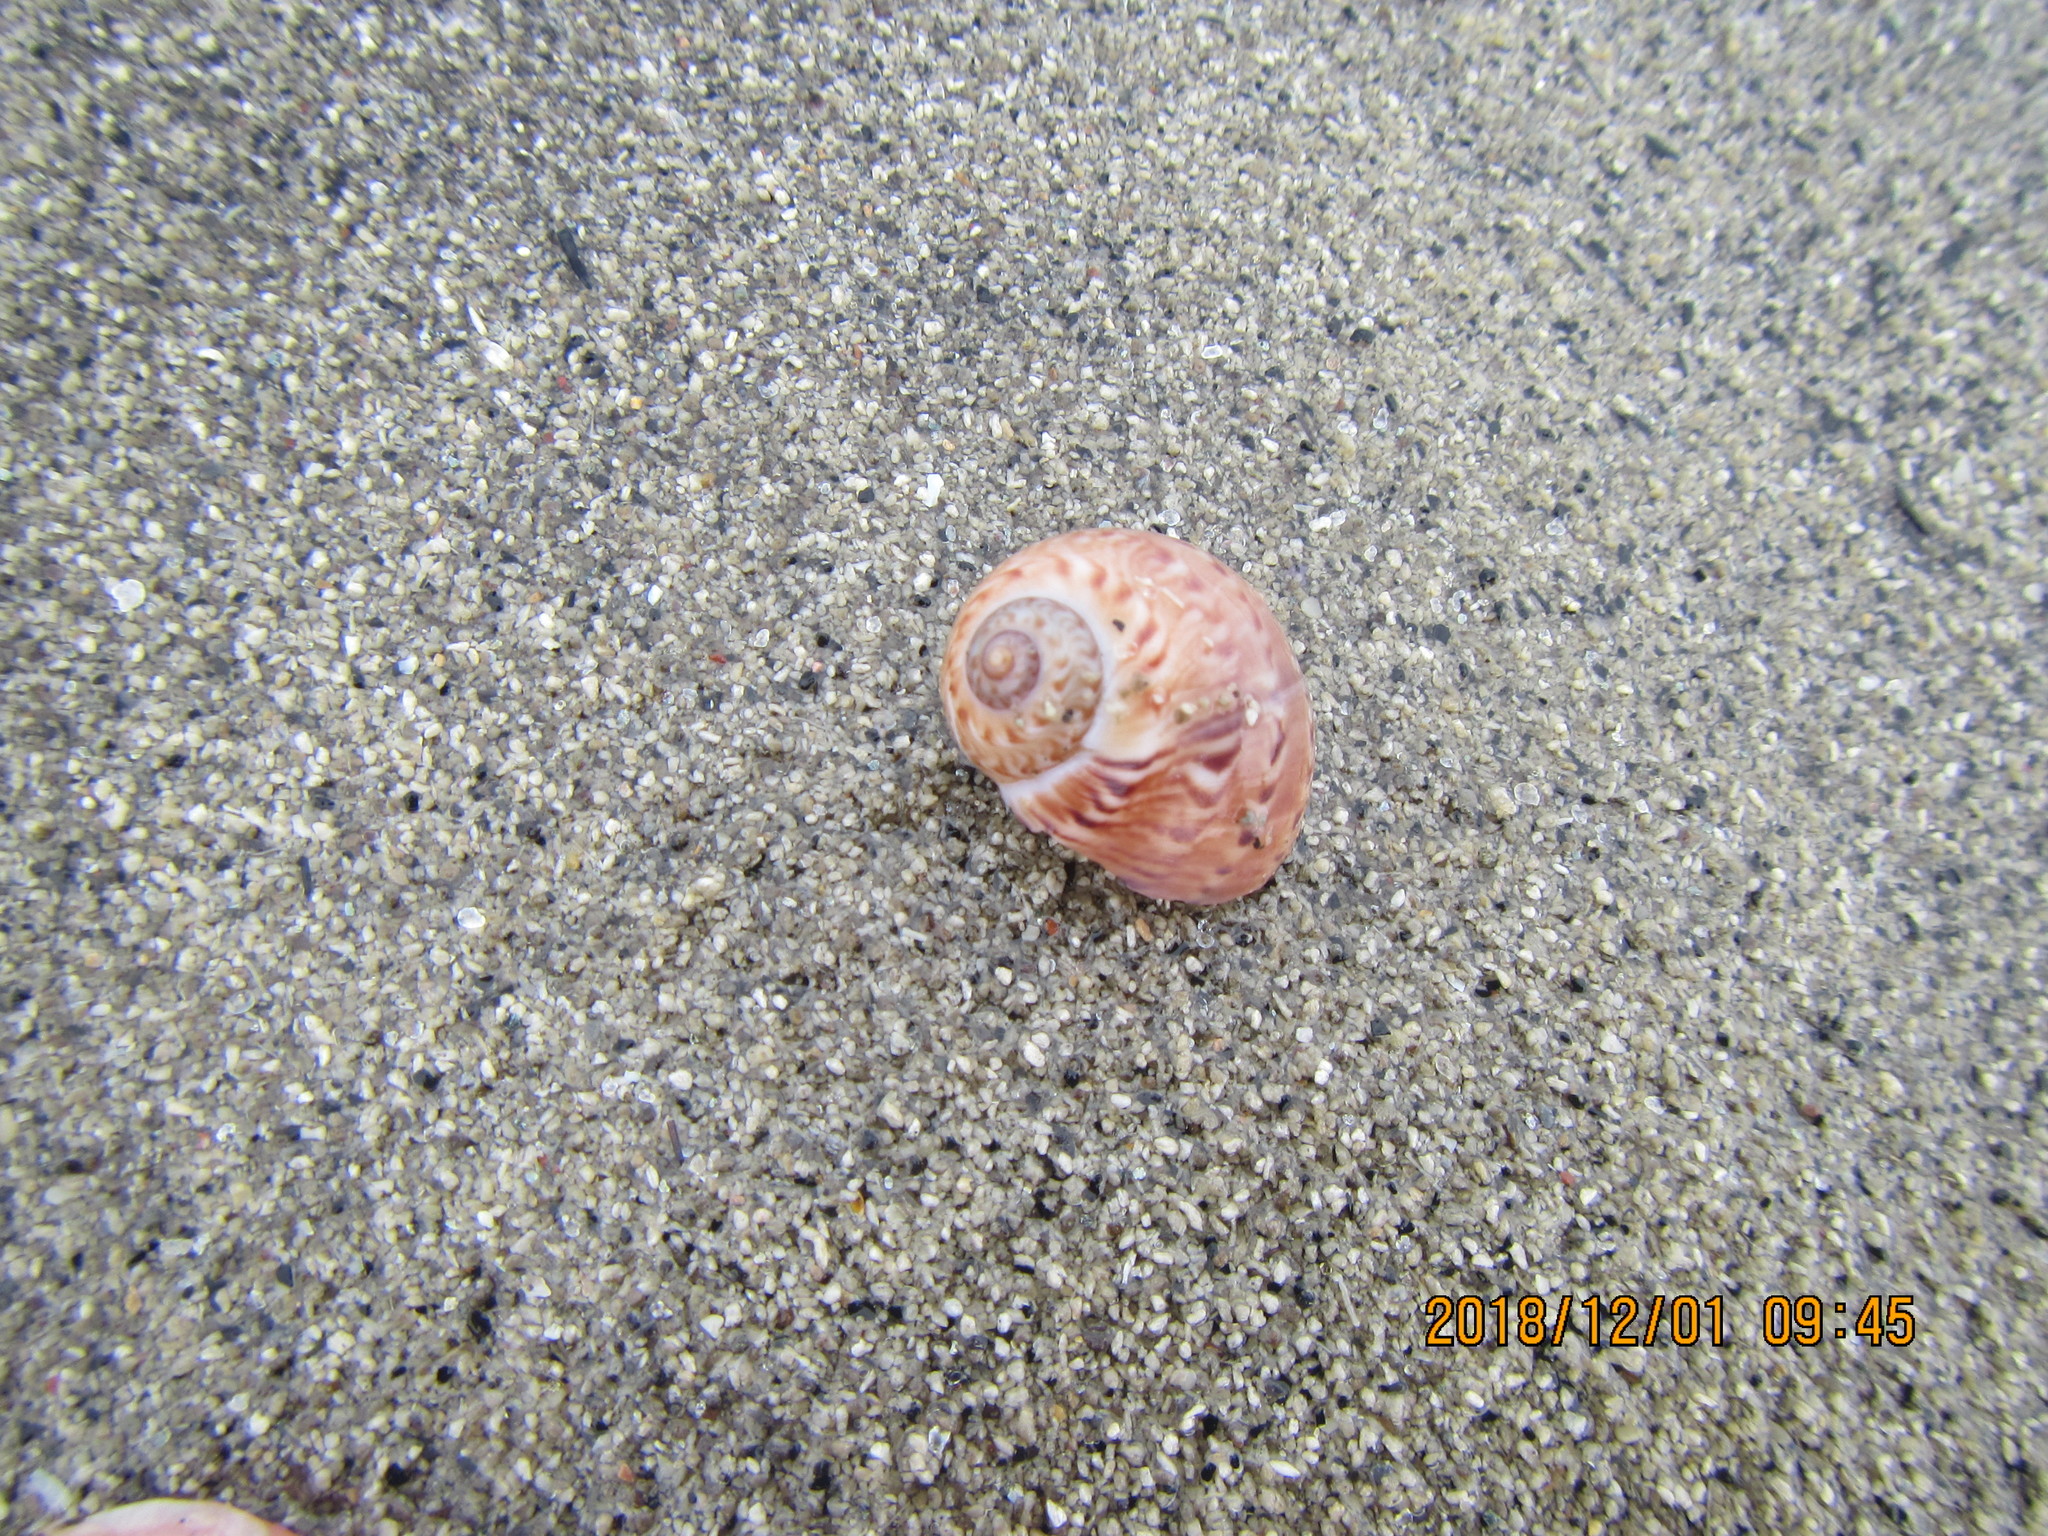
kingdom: Animalia
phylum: Mollusca
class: Gastropoda
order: Littorinimorpha
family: Naticidae
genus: Tanea
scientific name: Tanea zelandica
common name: New zealand moonsnail
